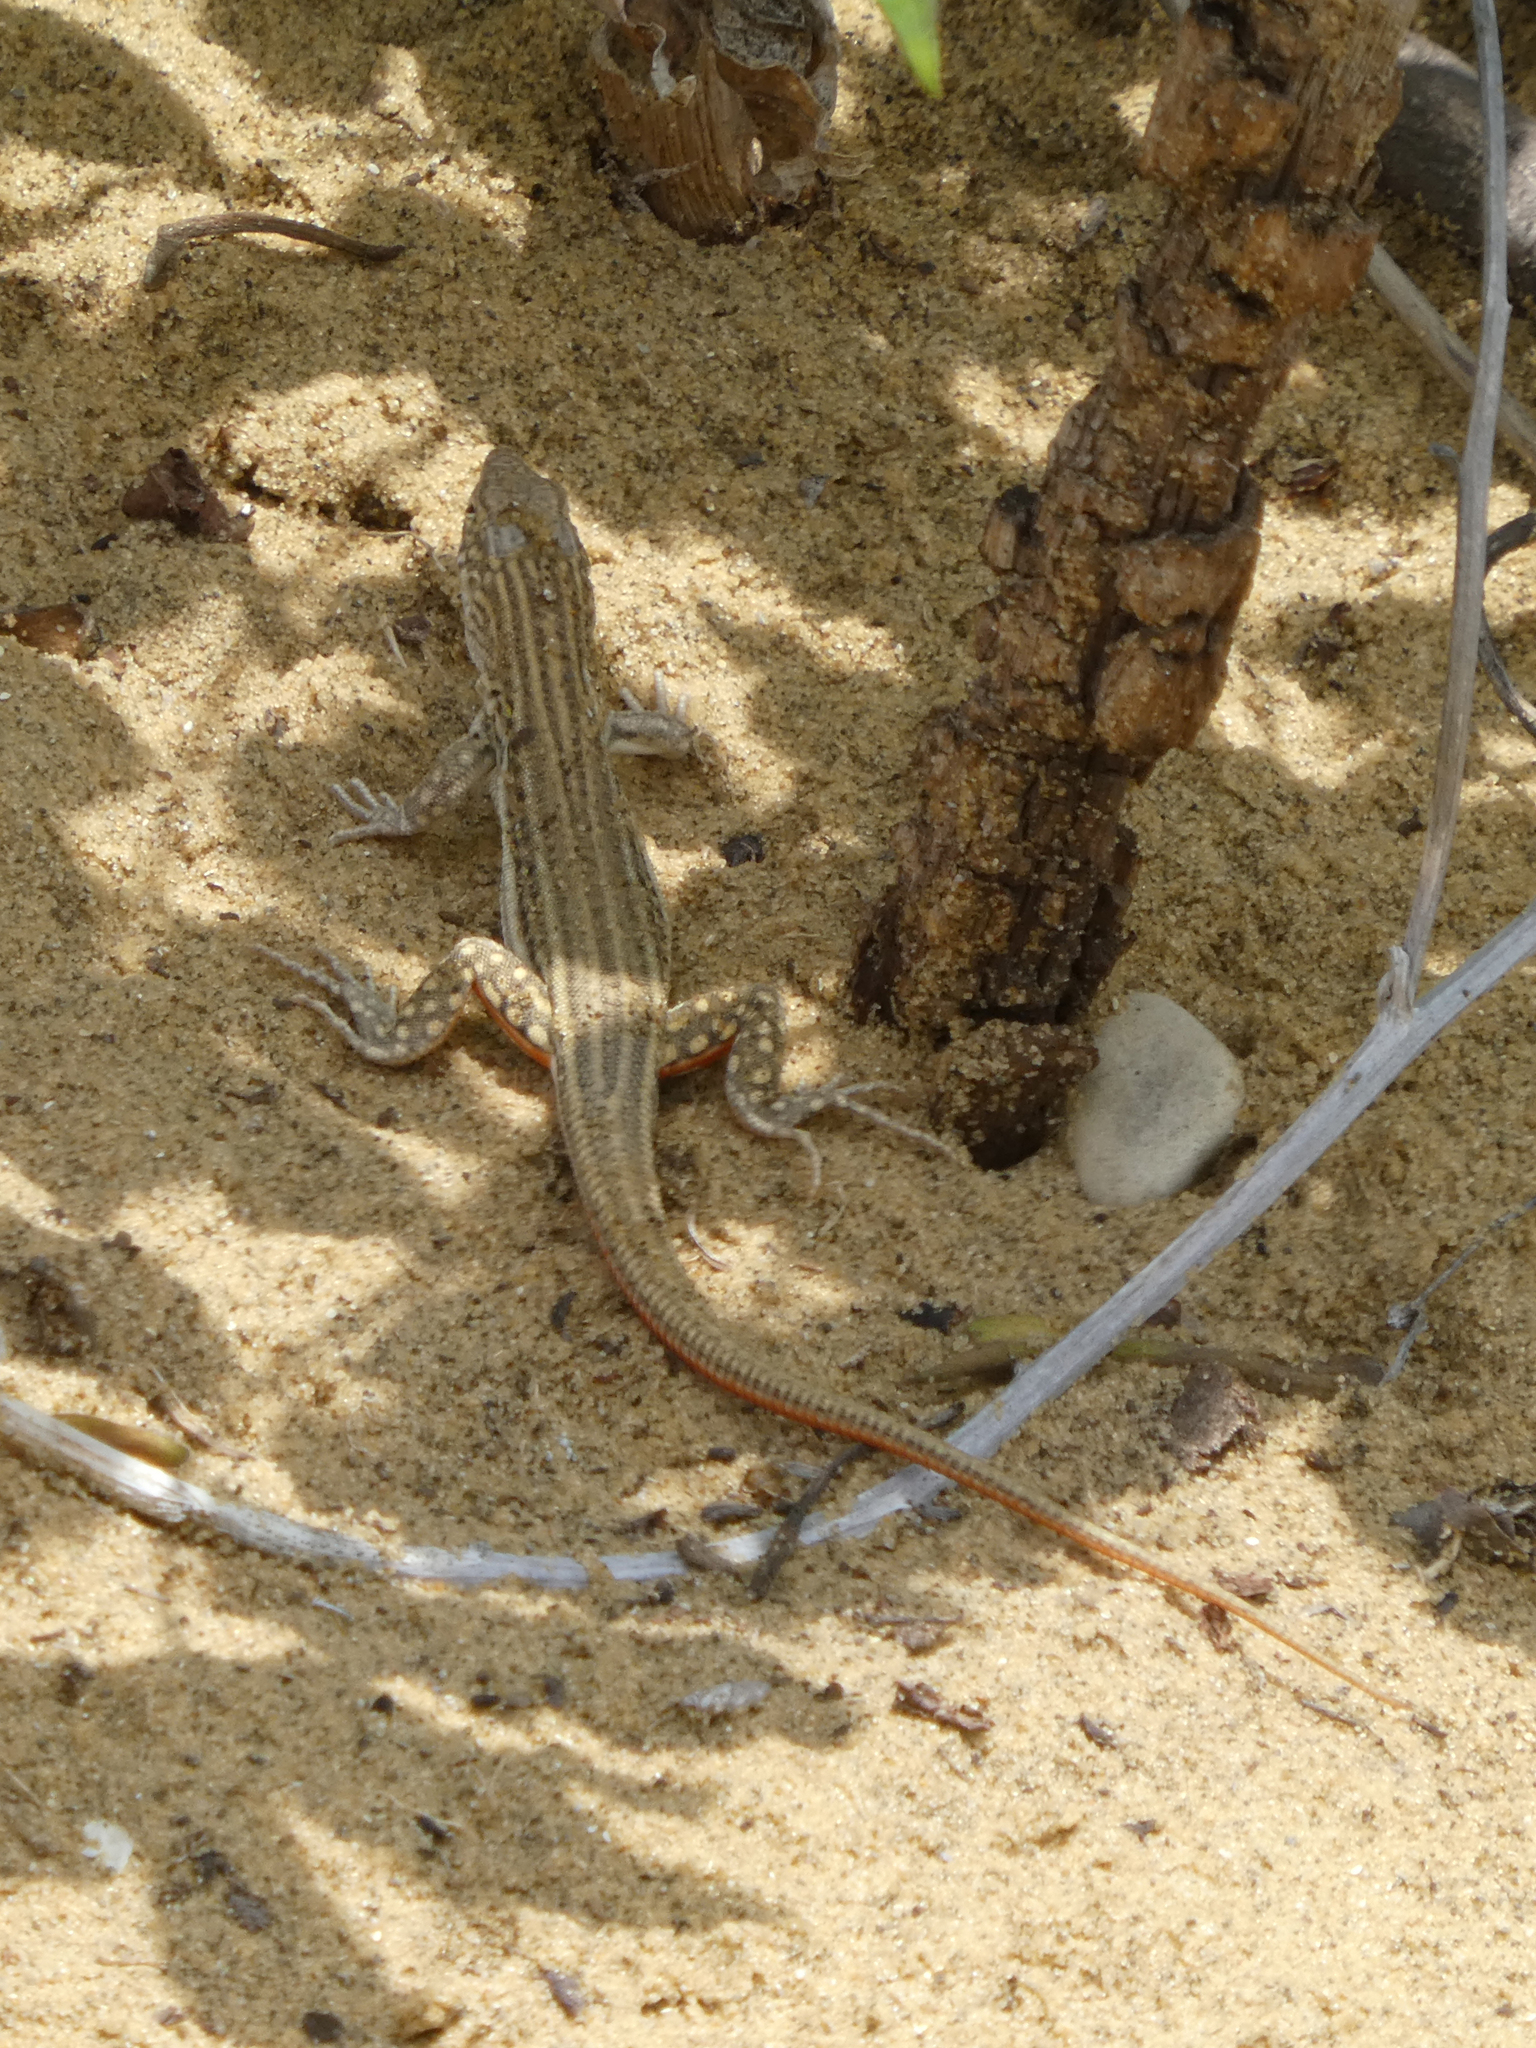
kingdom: Animalia
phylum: Chordata
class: Squamata
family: Lacertidae
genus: Eremias
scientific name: Eremias velox
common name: Central asian racerunner
